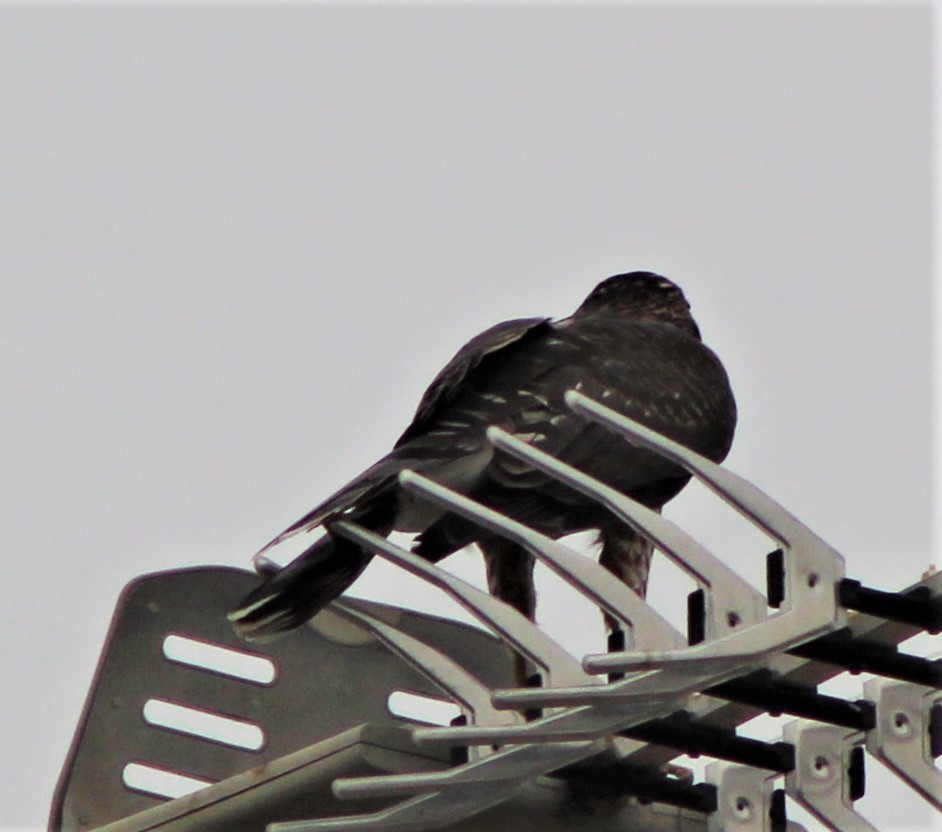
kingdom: Animalia
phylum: Chordata
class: Aves
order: Accipitriformes
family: Accipitridae
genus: Accipiter
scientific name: Accipiter cooperii
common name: Cooper's hawk
